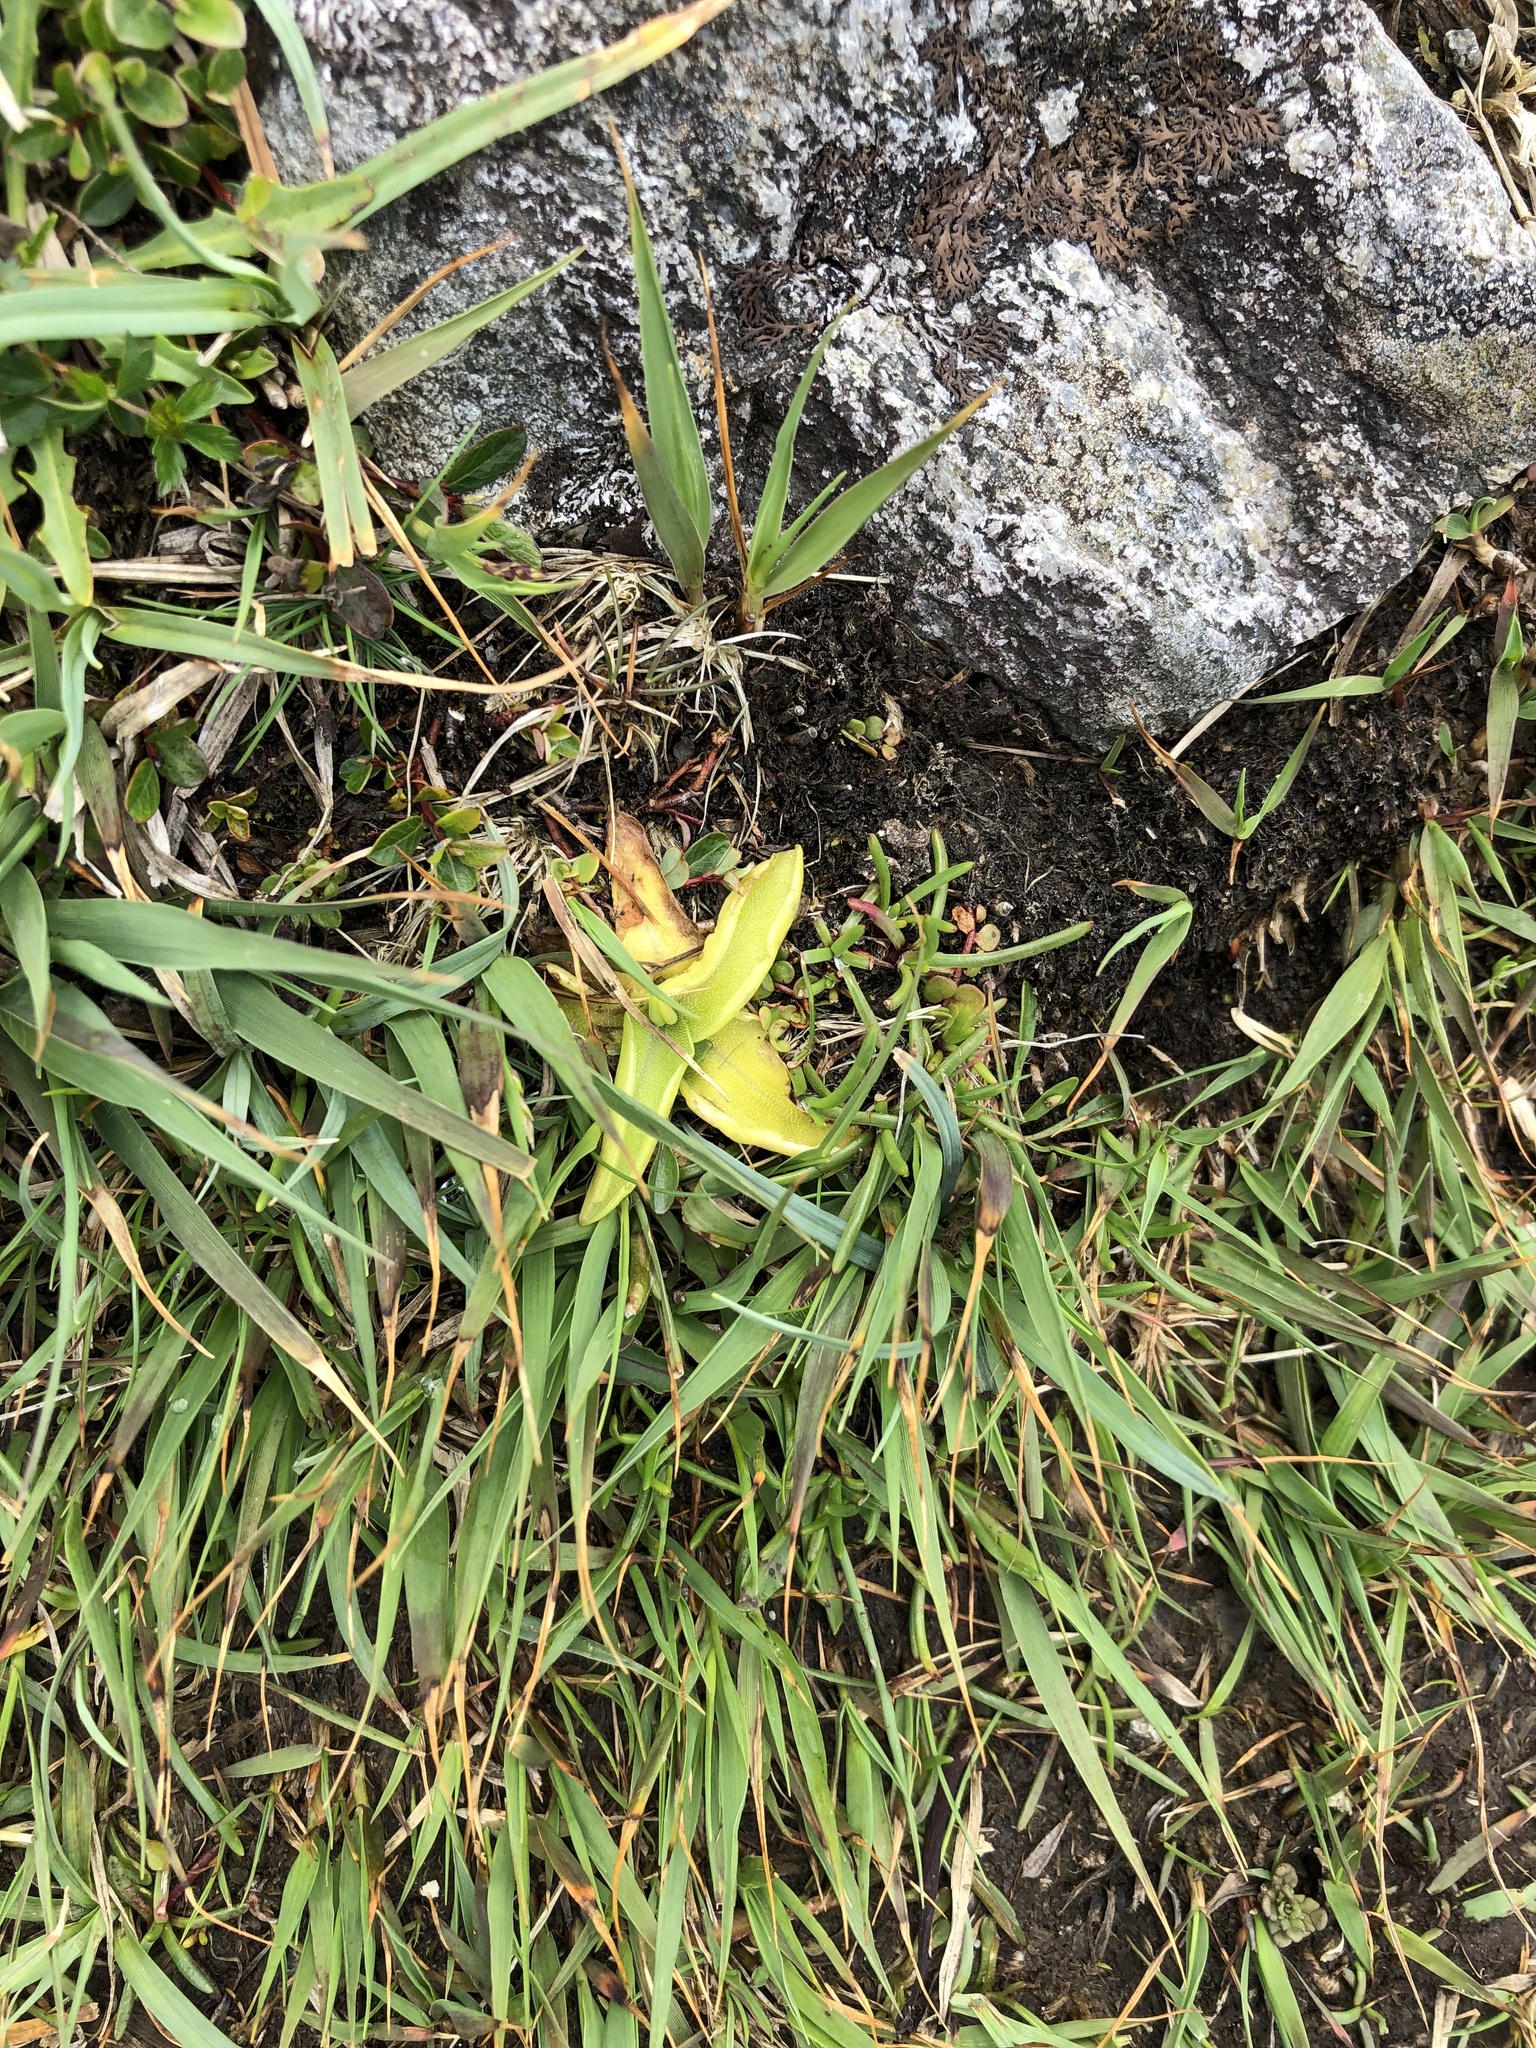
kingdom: Plantae
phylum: Tracheophyta
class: Magnoliopsida
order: Lamiales
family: Lentibulariaceae
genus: Pinguicula
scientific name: Pinguicula vulgaris
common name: Common butterwort
